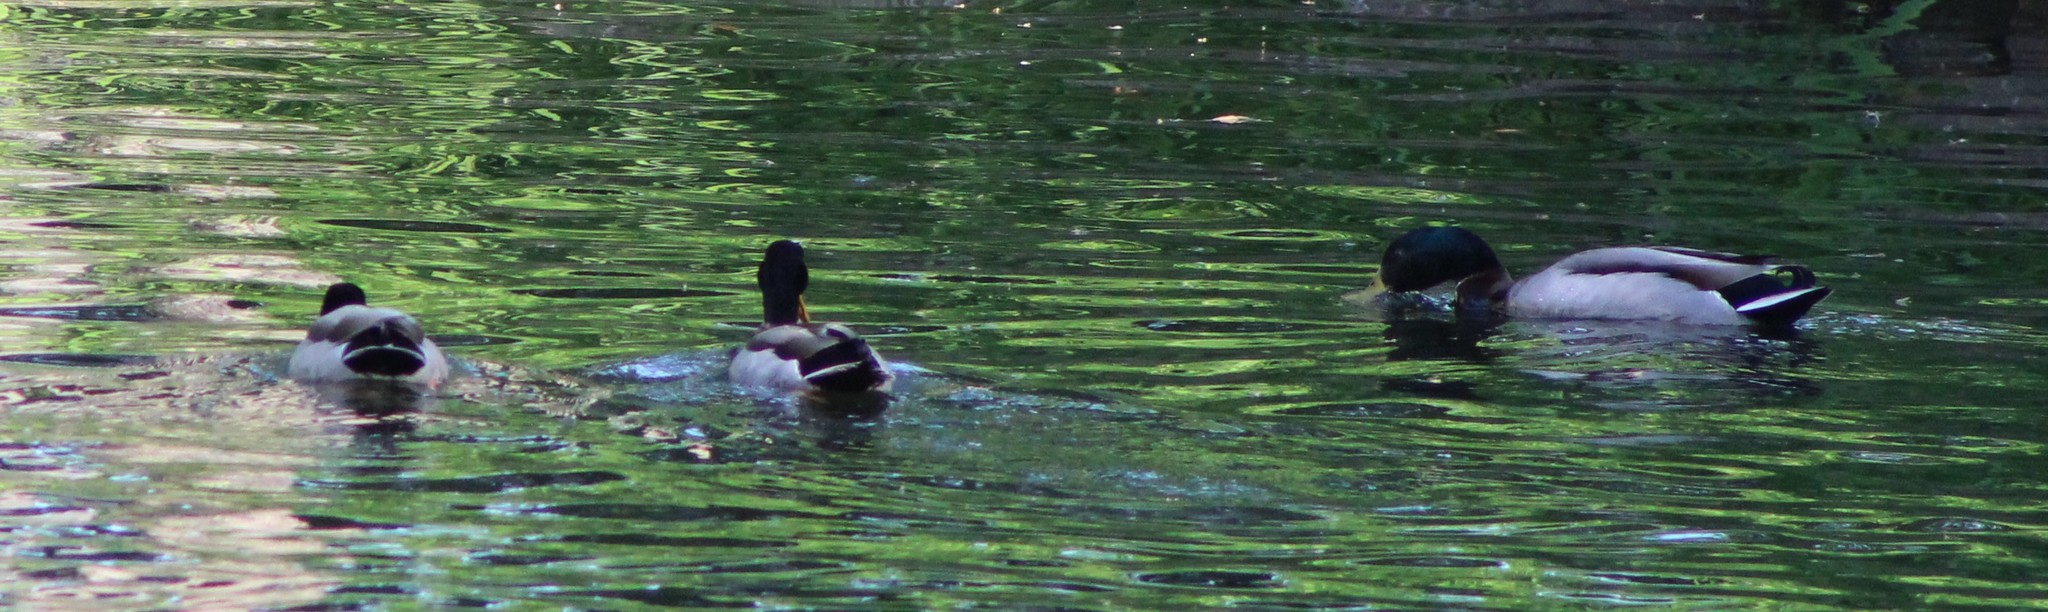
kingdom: Animalia
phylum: Chordata
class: Aves
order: Anseriformes
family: Anatidae
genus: Anas
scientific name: Anas platyrhynchos
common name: Mallard
